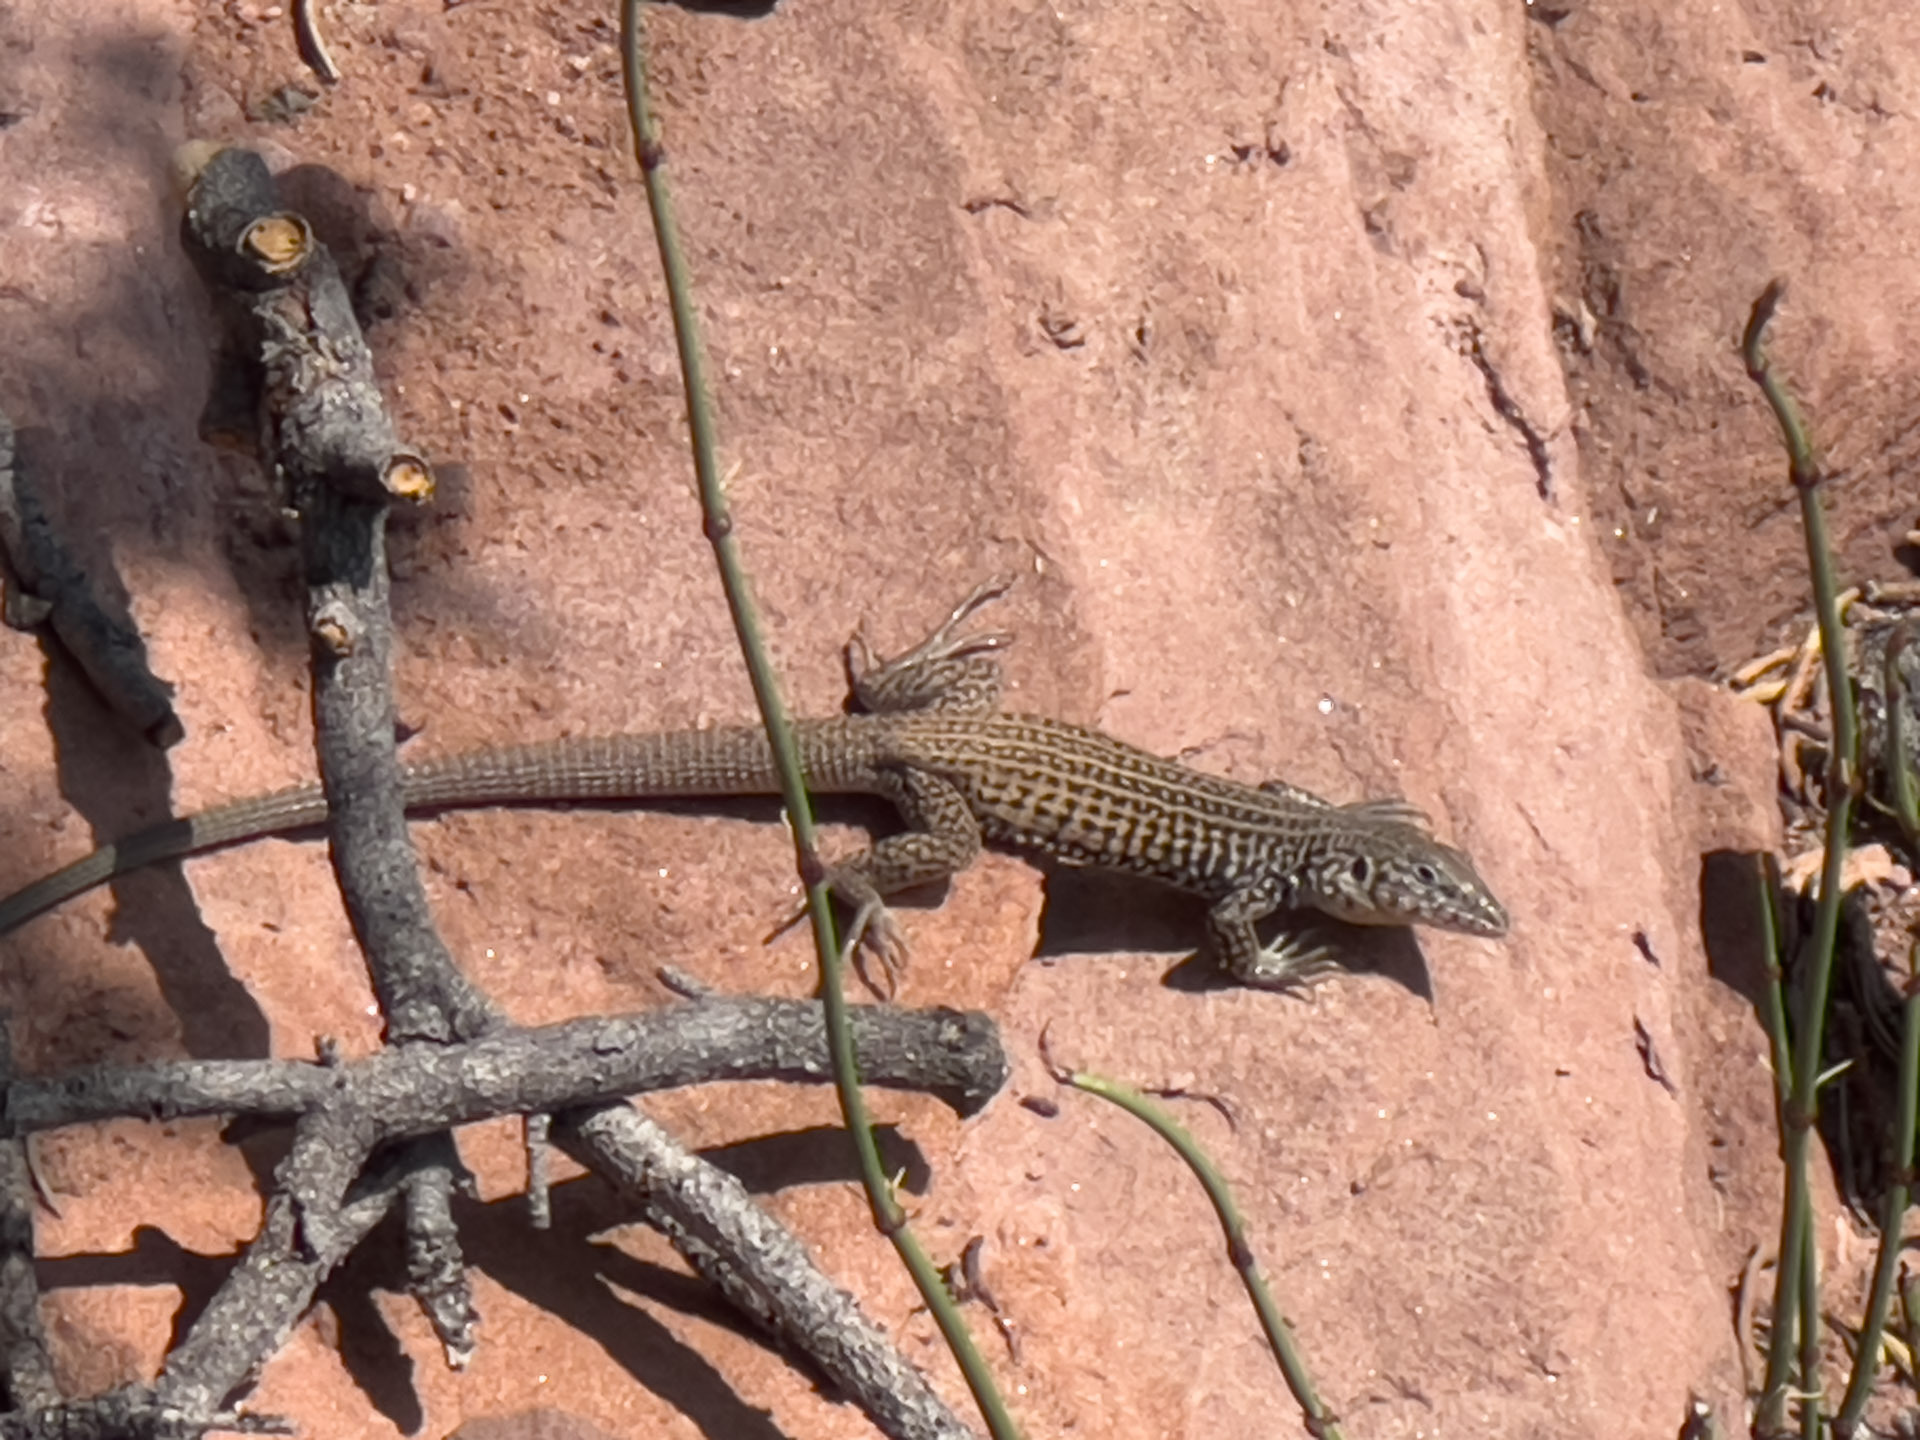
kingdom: Animalia
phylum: Chordata
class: Squamata
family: Teiidae
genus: Aspidoscelis
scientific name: Aspidoscelis tigris
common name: Tiger whiptail
